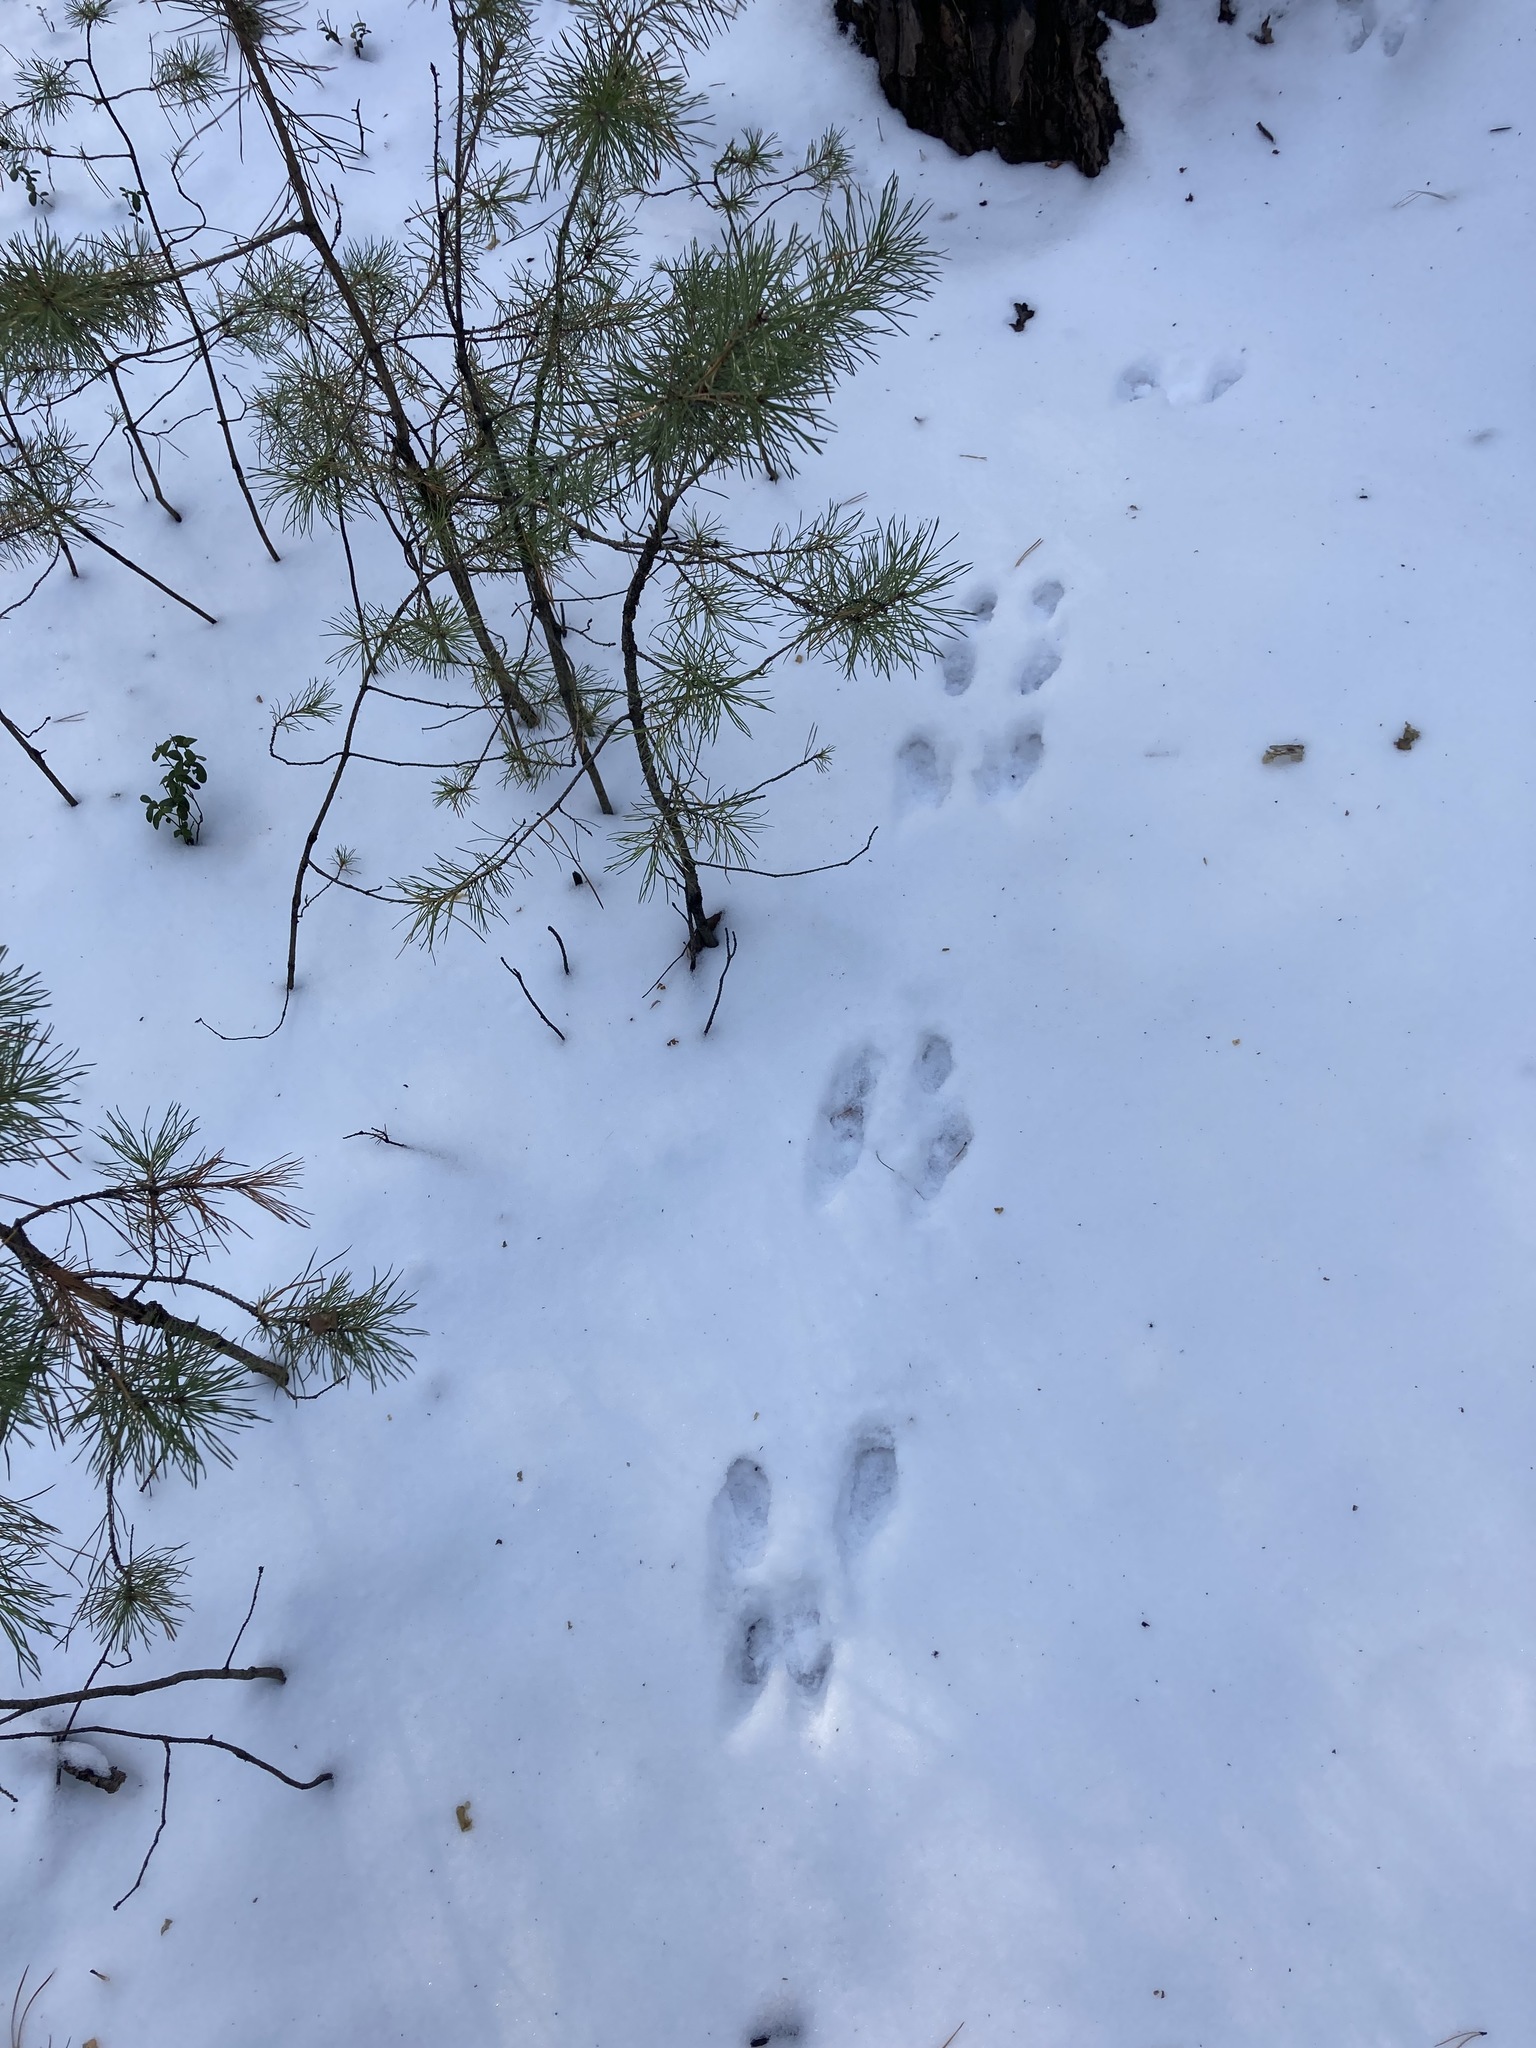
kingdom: Animalia
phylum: Chordata
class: Mammalia
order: Rodentia
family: Sciuridae
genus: Sciurus
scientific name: Sciurus vulgaris
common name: Eurasian red squirrel
